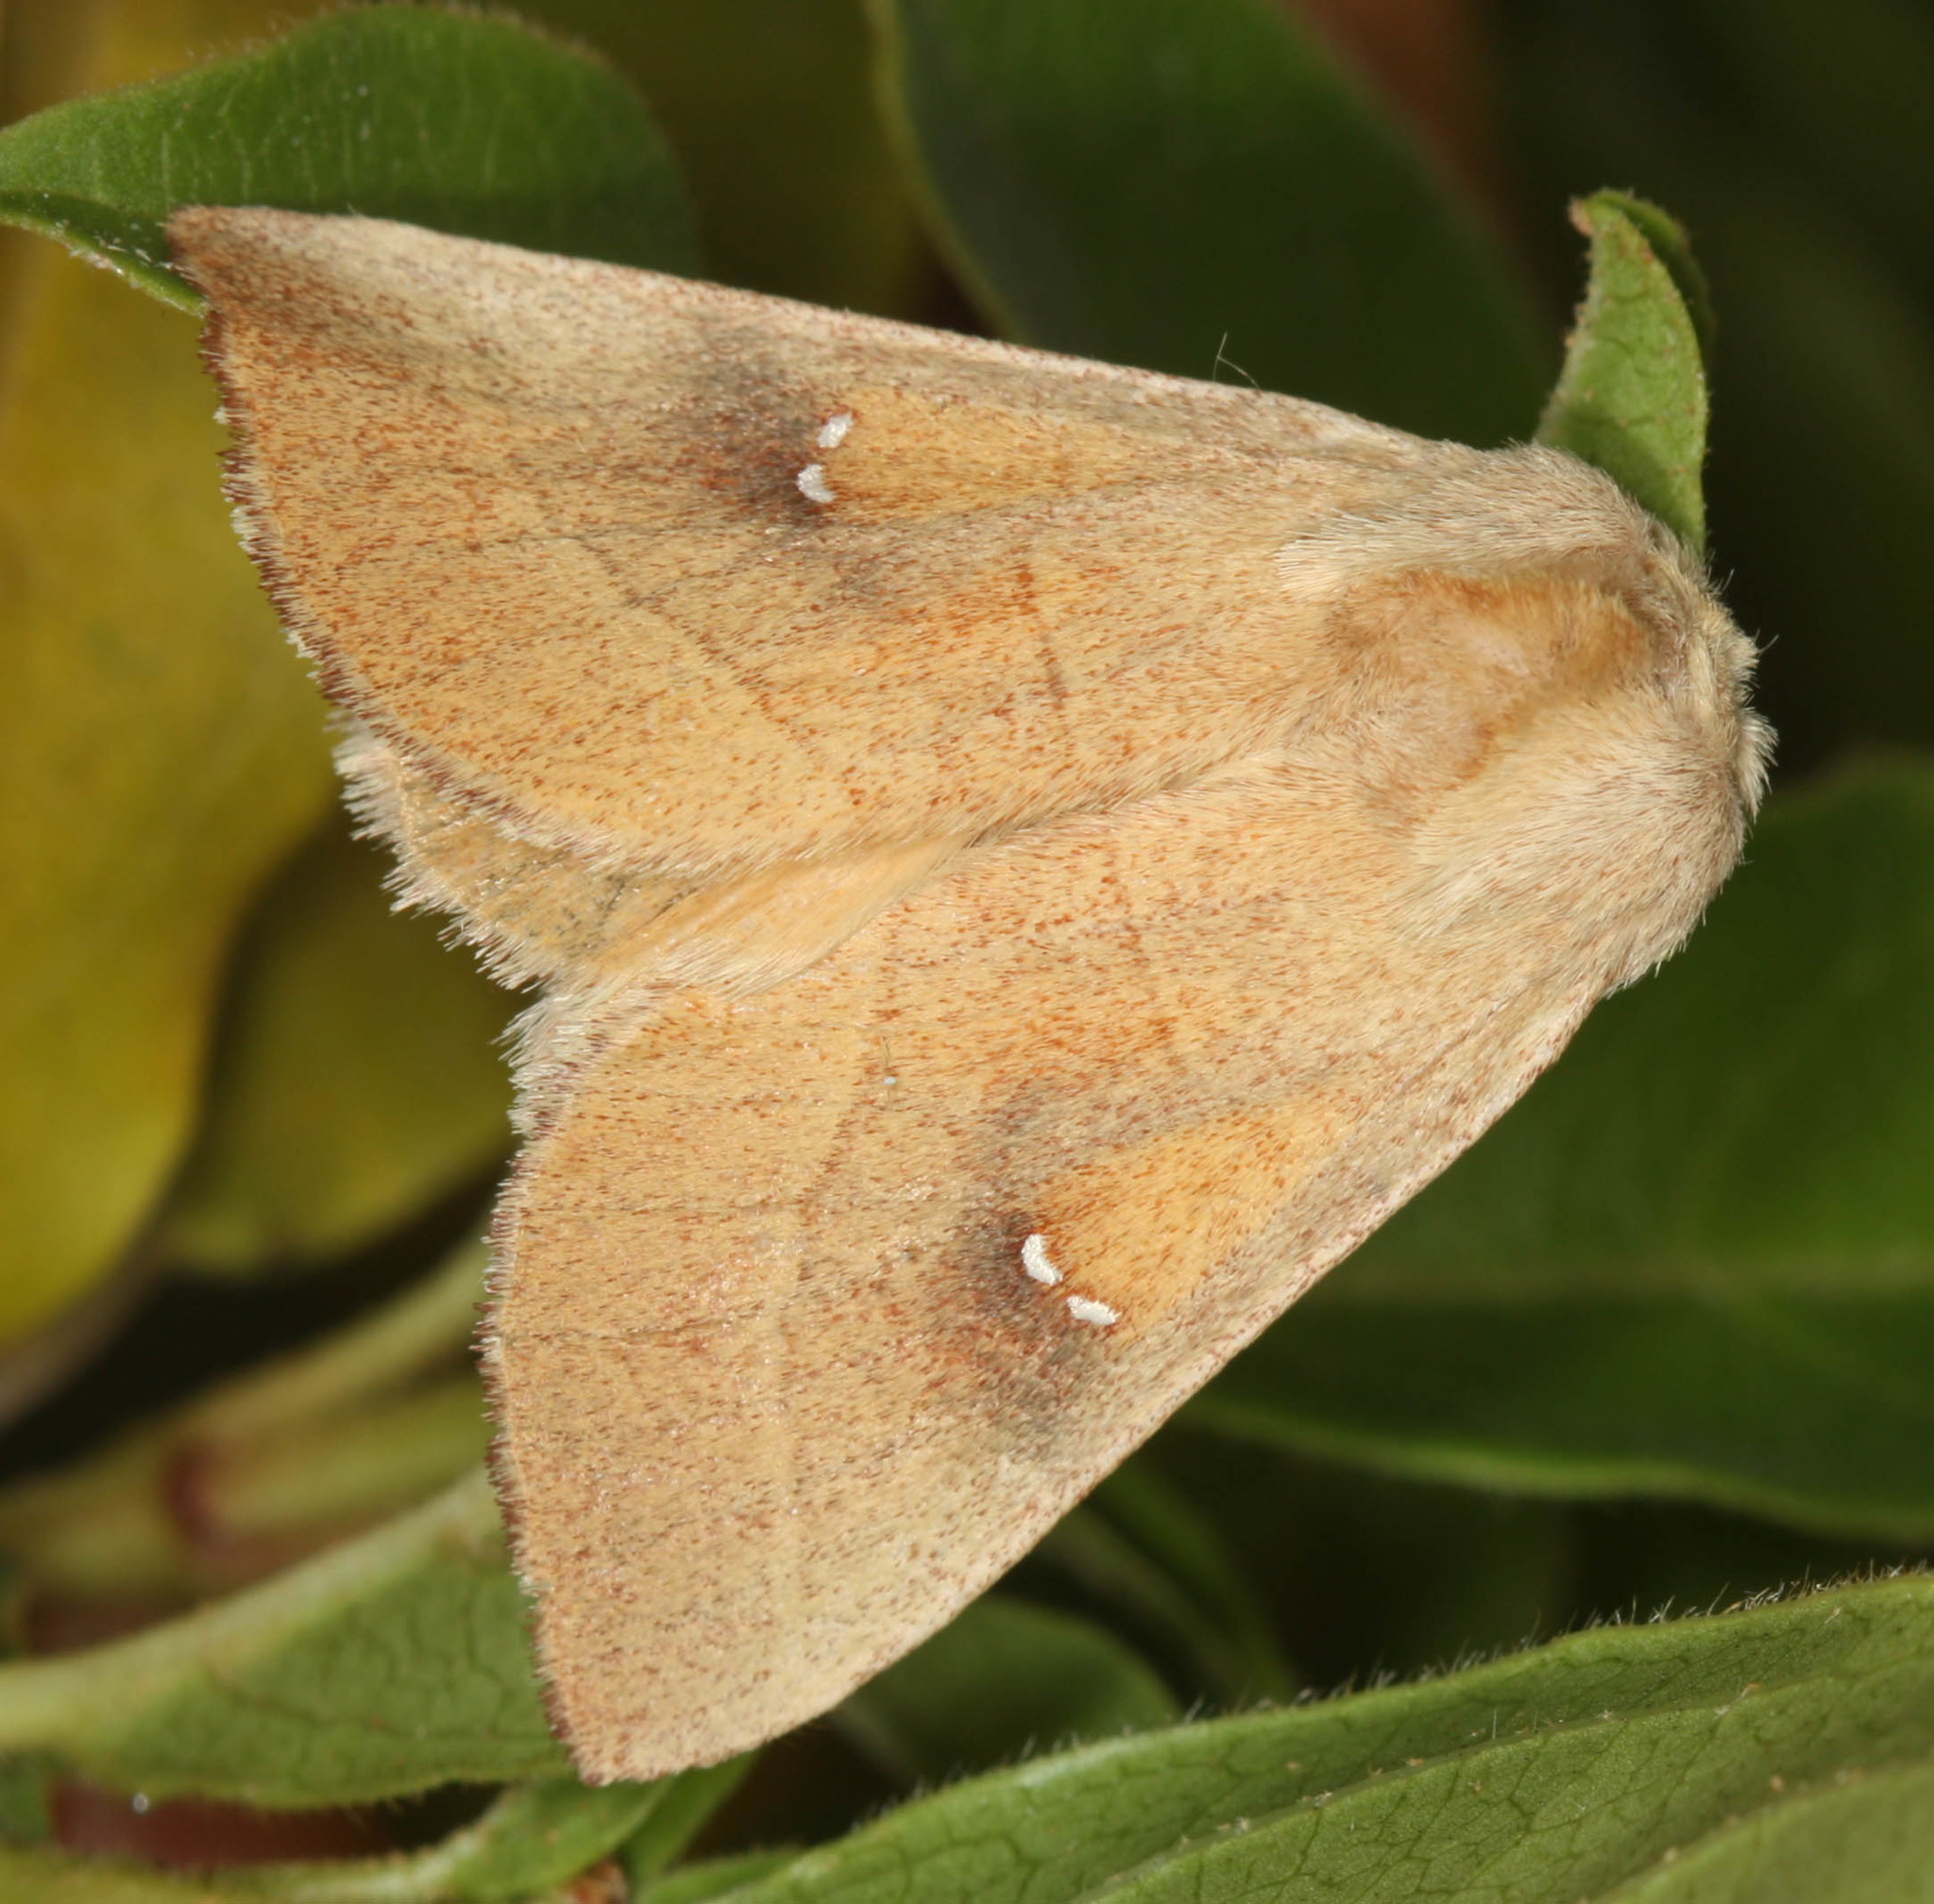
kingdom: Animalia
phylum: Arthropoda
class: Insecta
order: Lepidoptera
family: Notodontidae
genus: Nadata
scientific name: Nadata gibbosa
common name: White-dotted prominent
